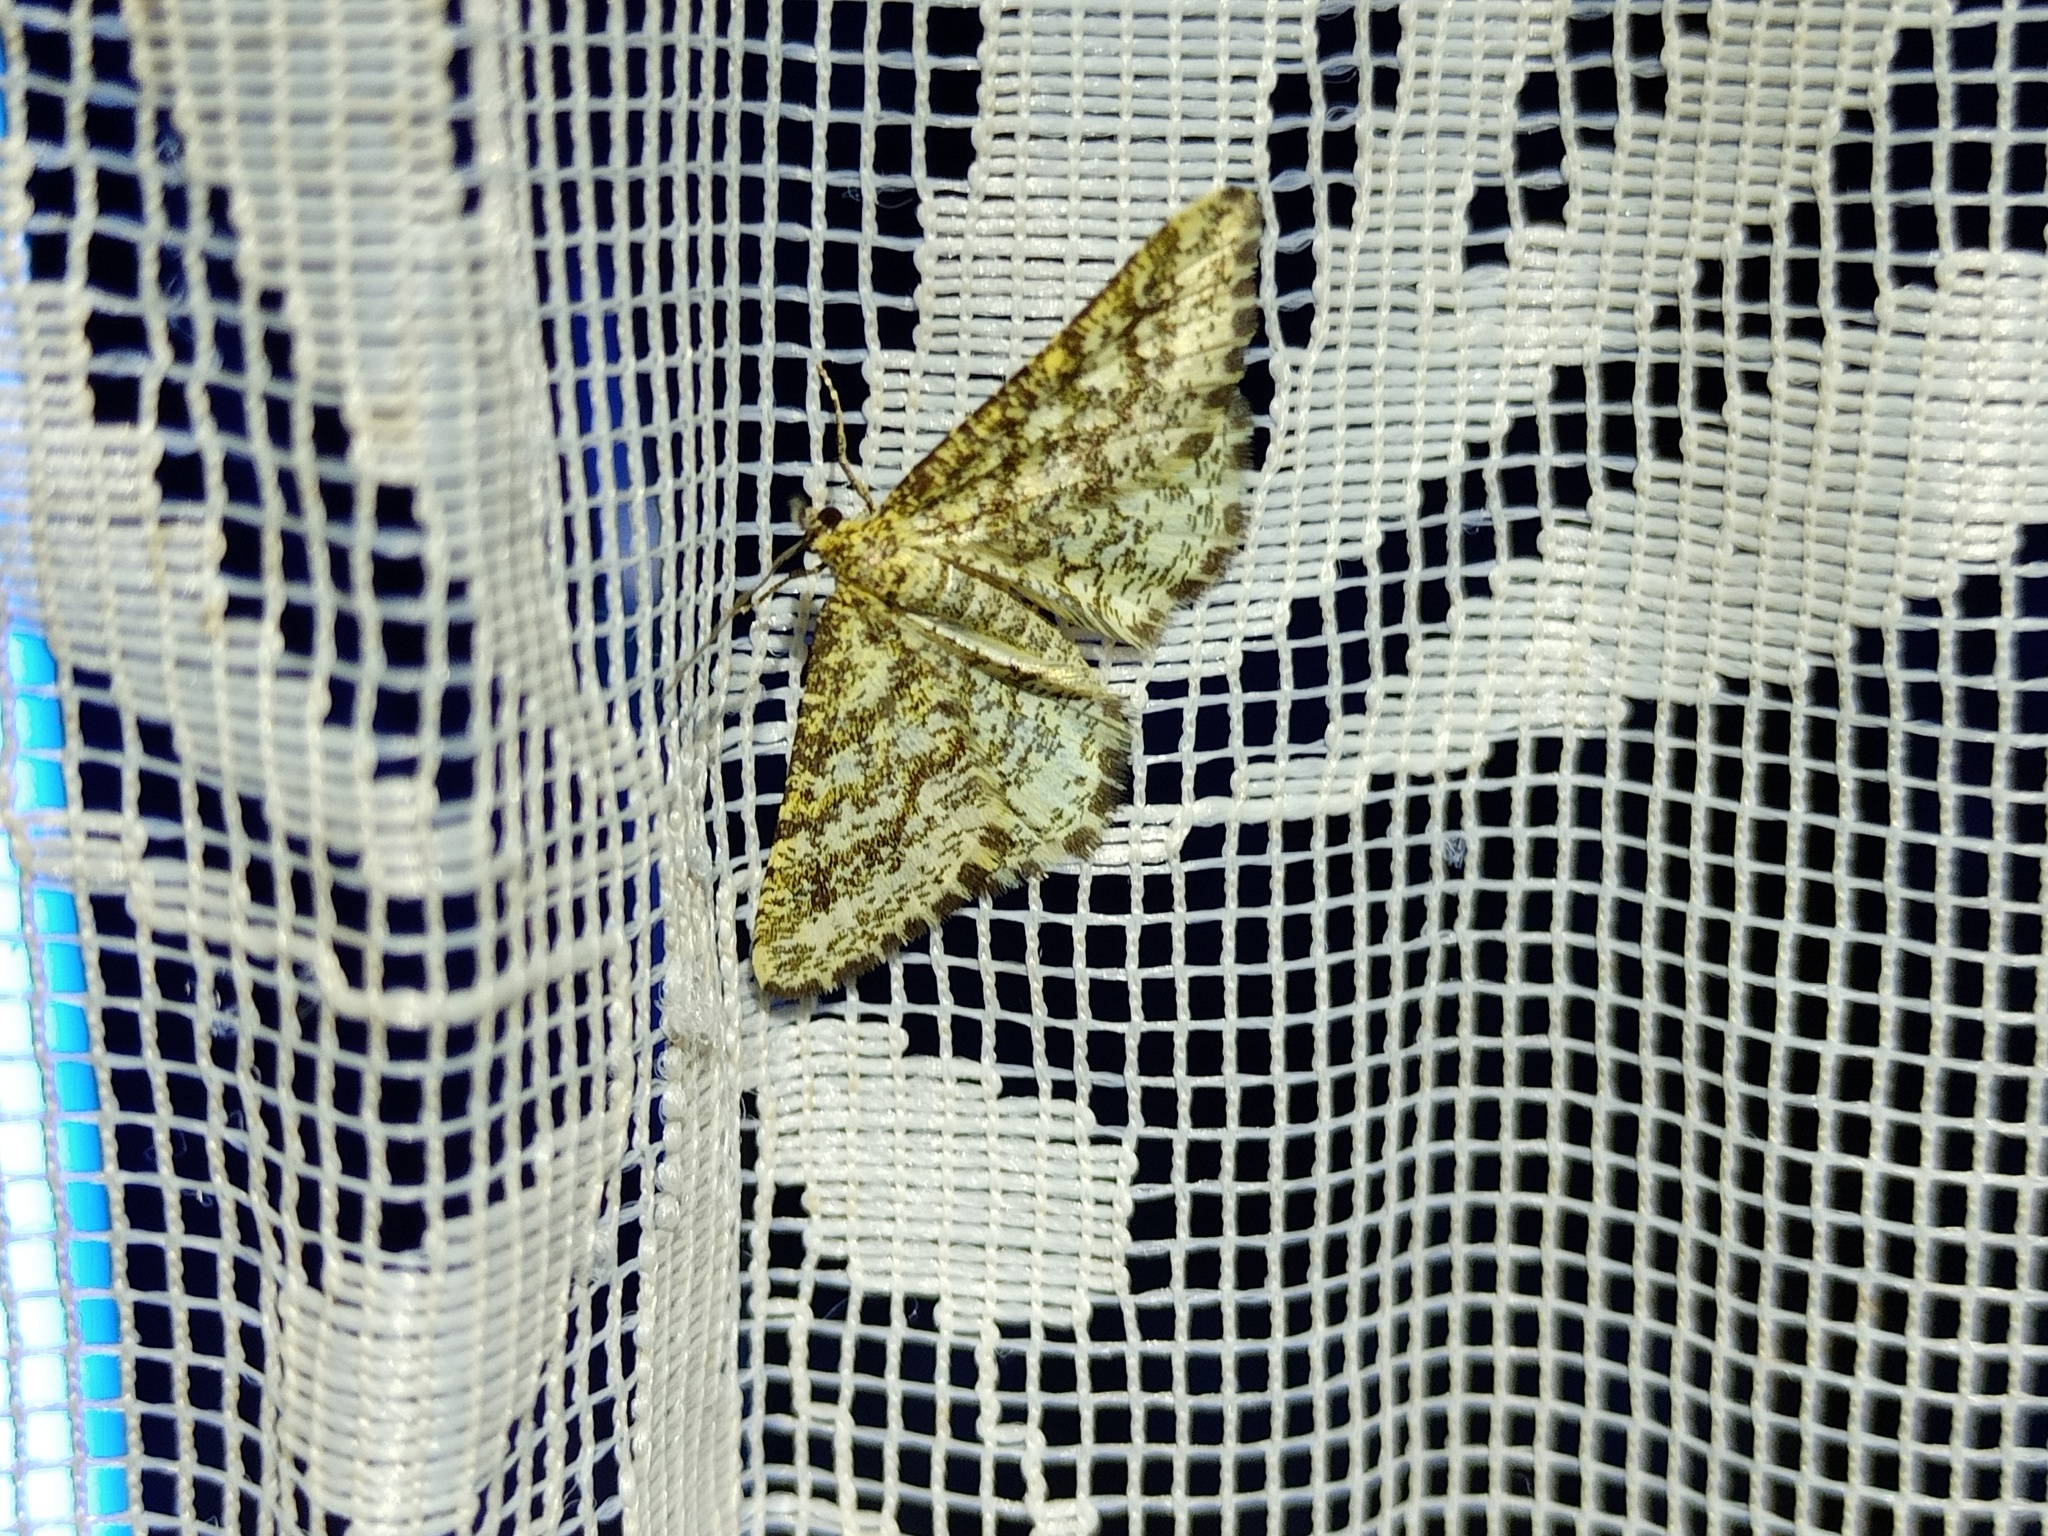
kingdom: Animalia
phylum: Arthropoda
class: Insecta
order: Lepidoptera
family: Geometridae
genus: Heliomata
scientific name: Heliomata glarearia
